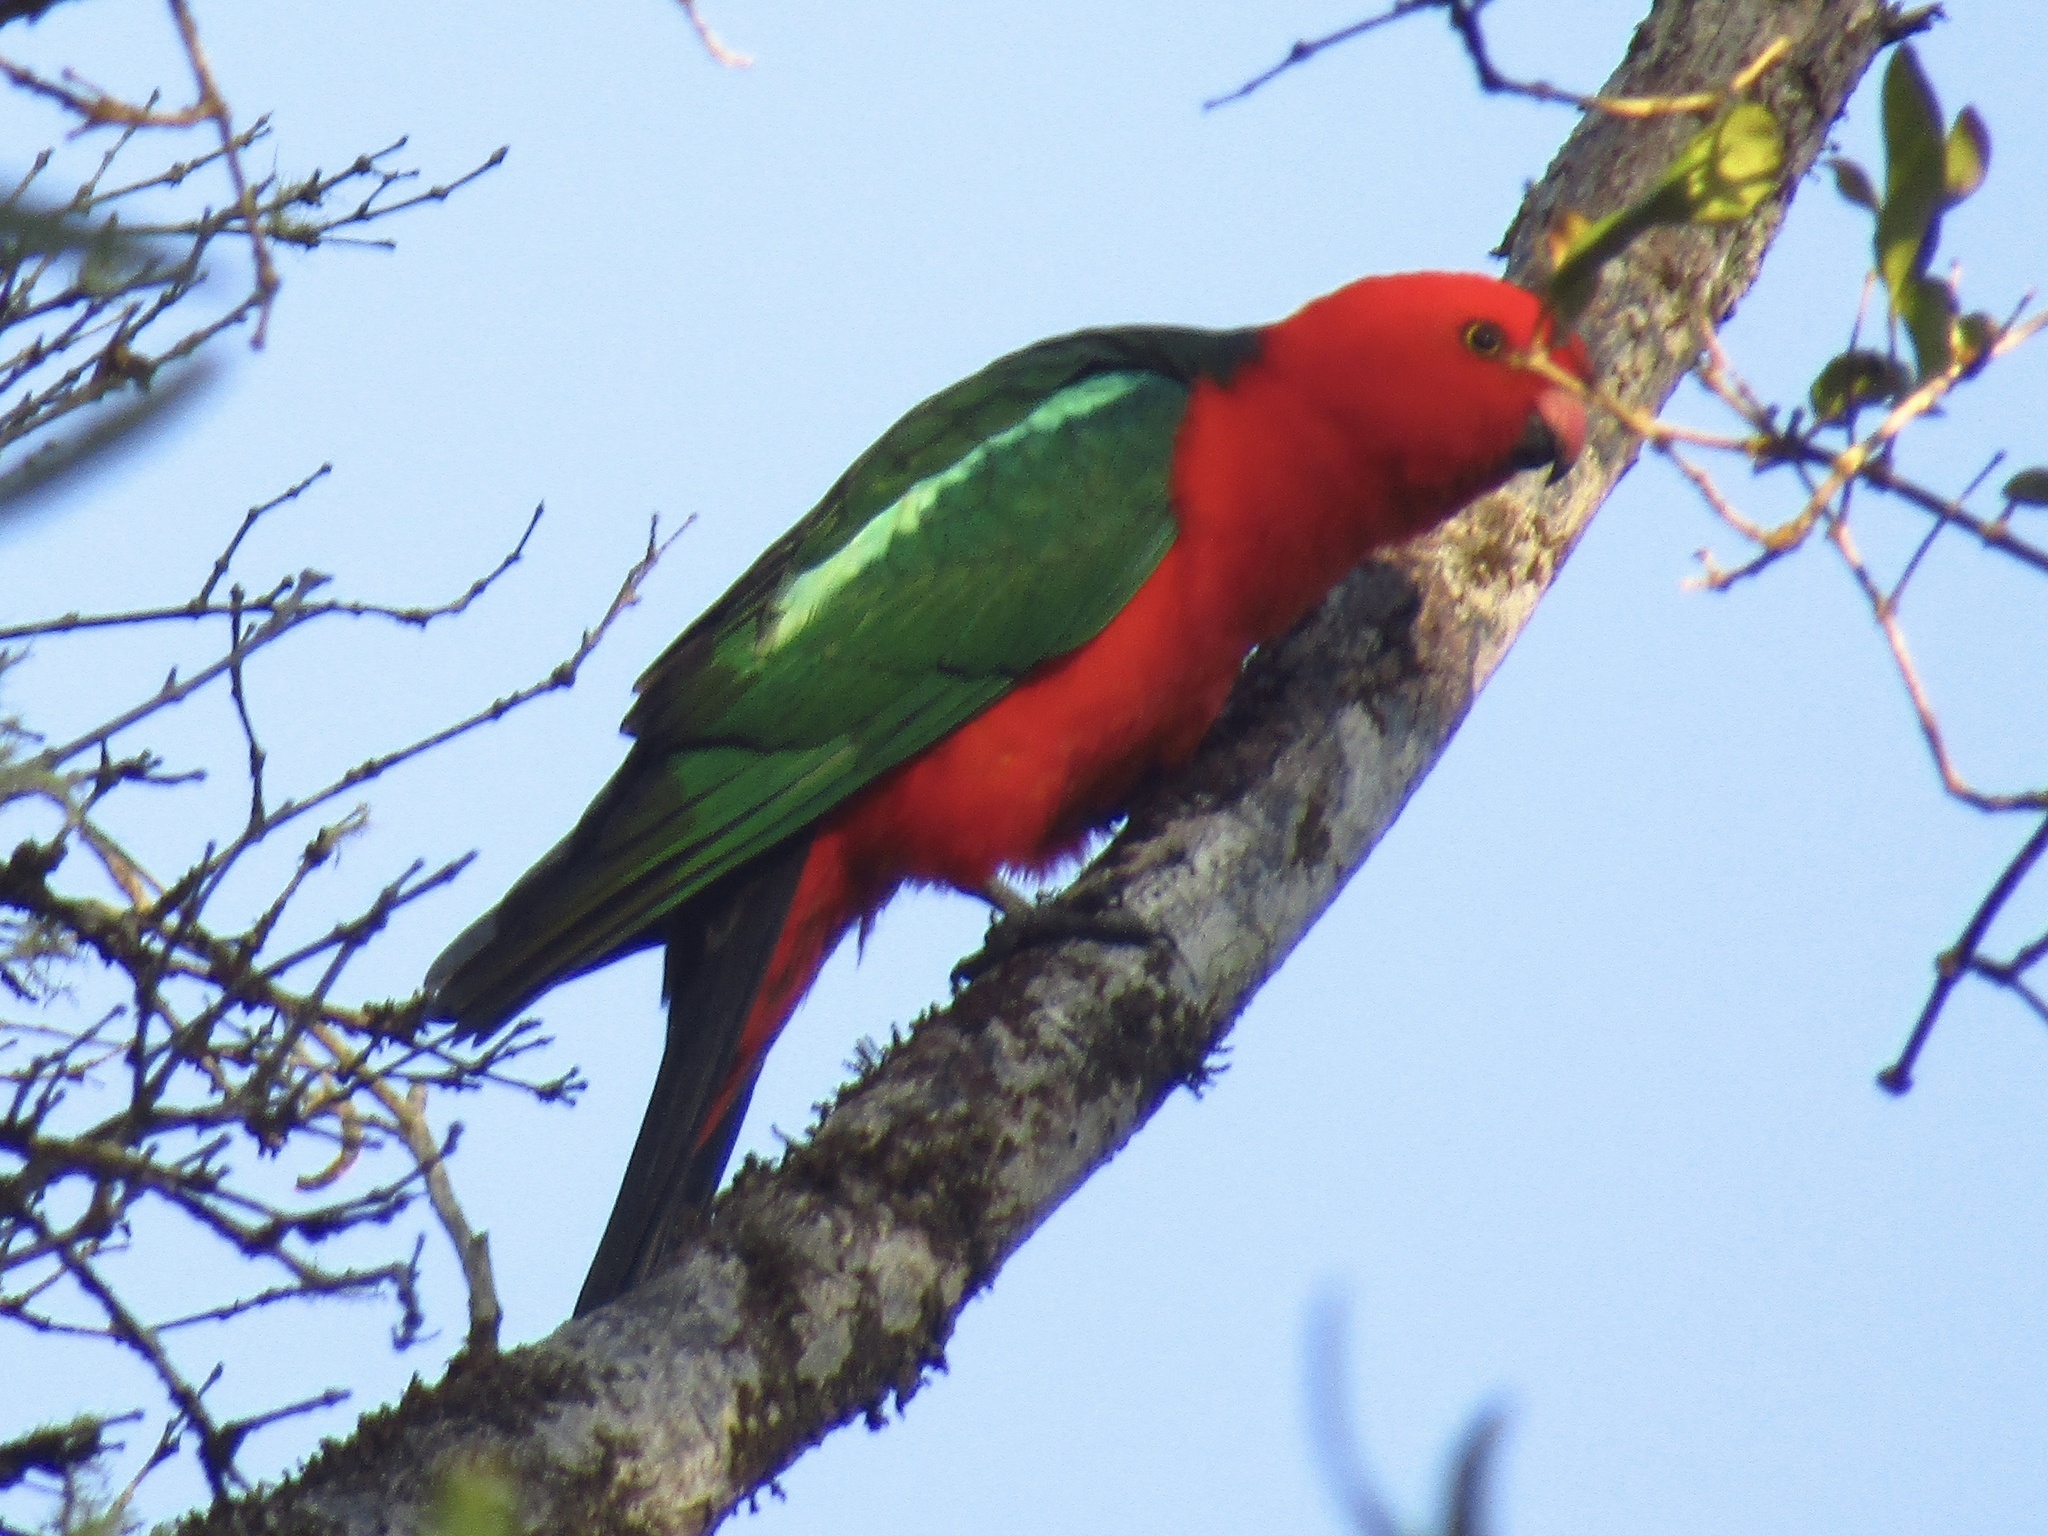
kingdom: Animalia
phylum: Chordata
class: Aves
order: Psittaciformes
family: Psittacidae
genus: Alisterus
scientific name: Alisterus scapularis
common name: Australian king parrot
